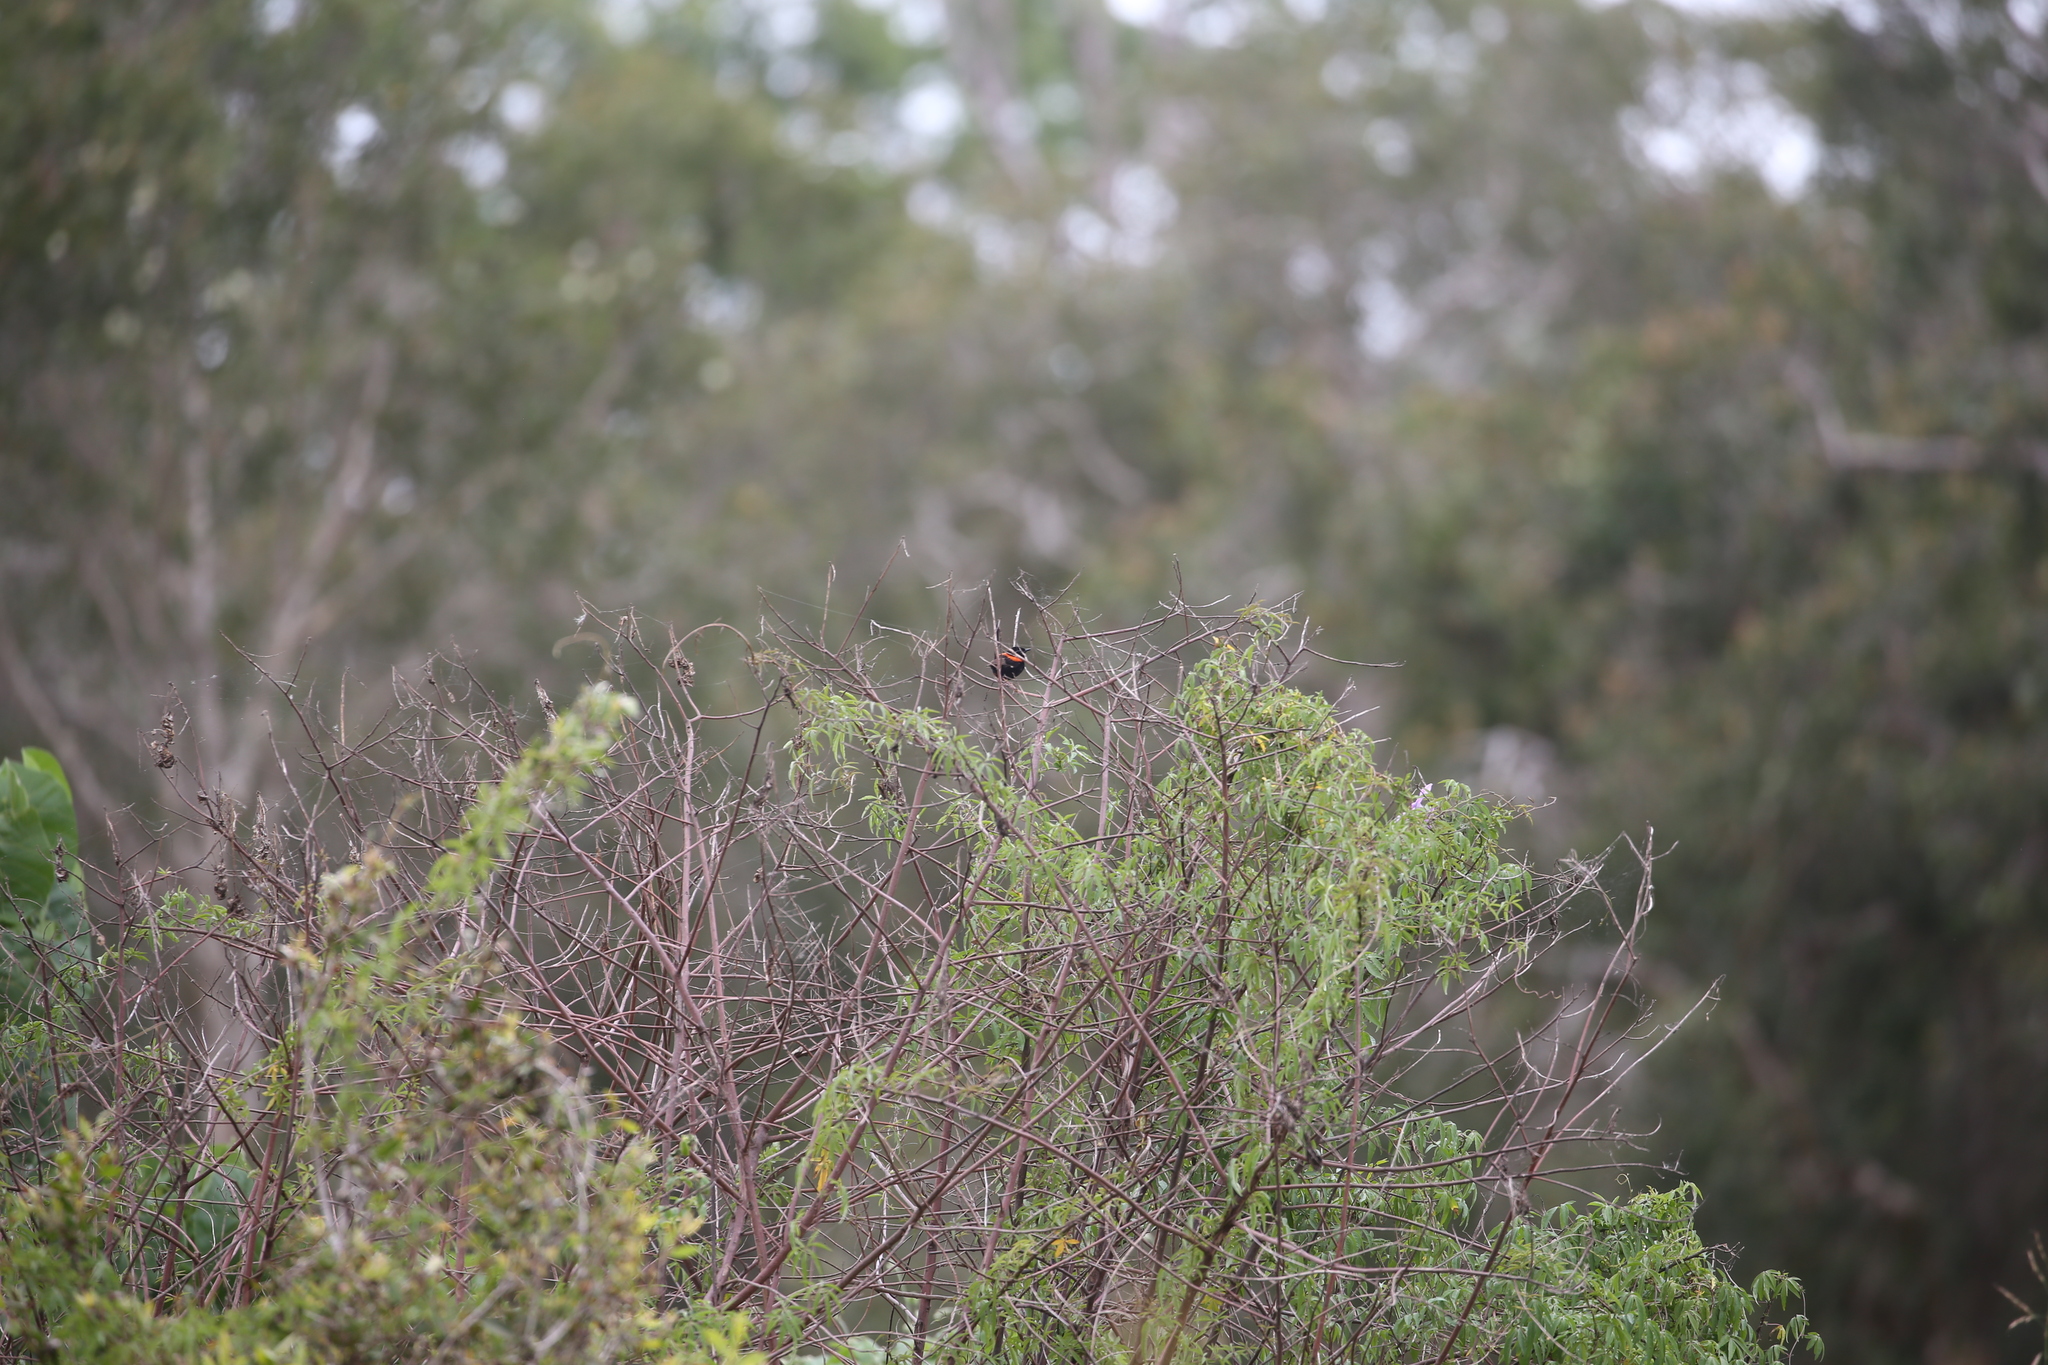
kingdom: Animalia
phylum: Chordata
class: Aves
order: Passeriformes
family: Maluridae
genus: Malurus
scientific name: Malurus melanocephalus
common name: Red-backed fairywren
